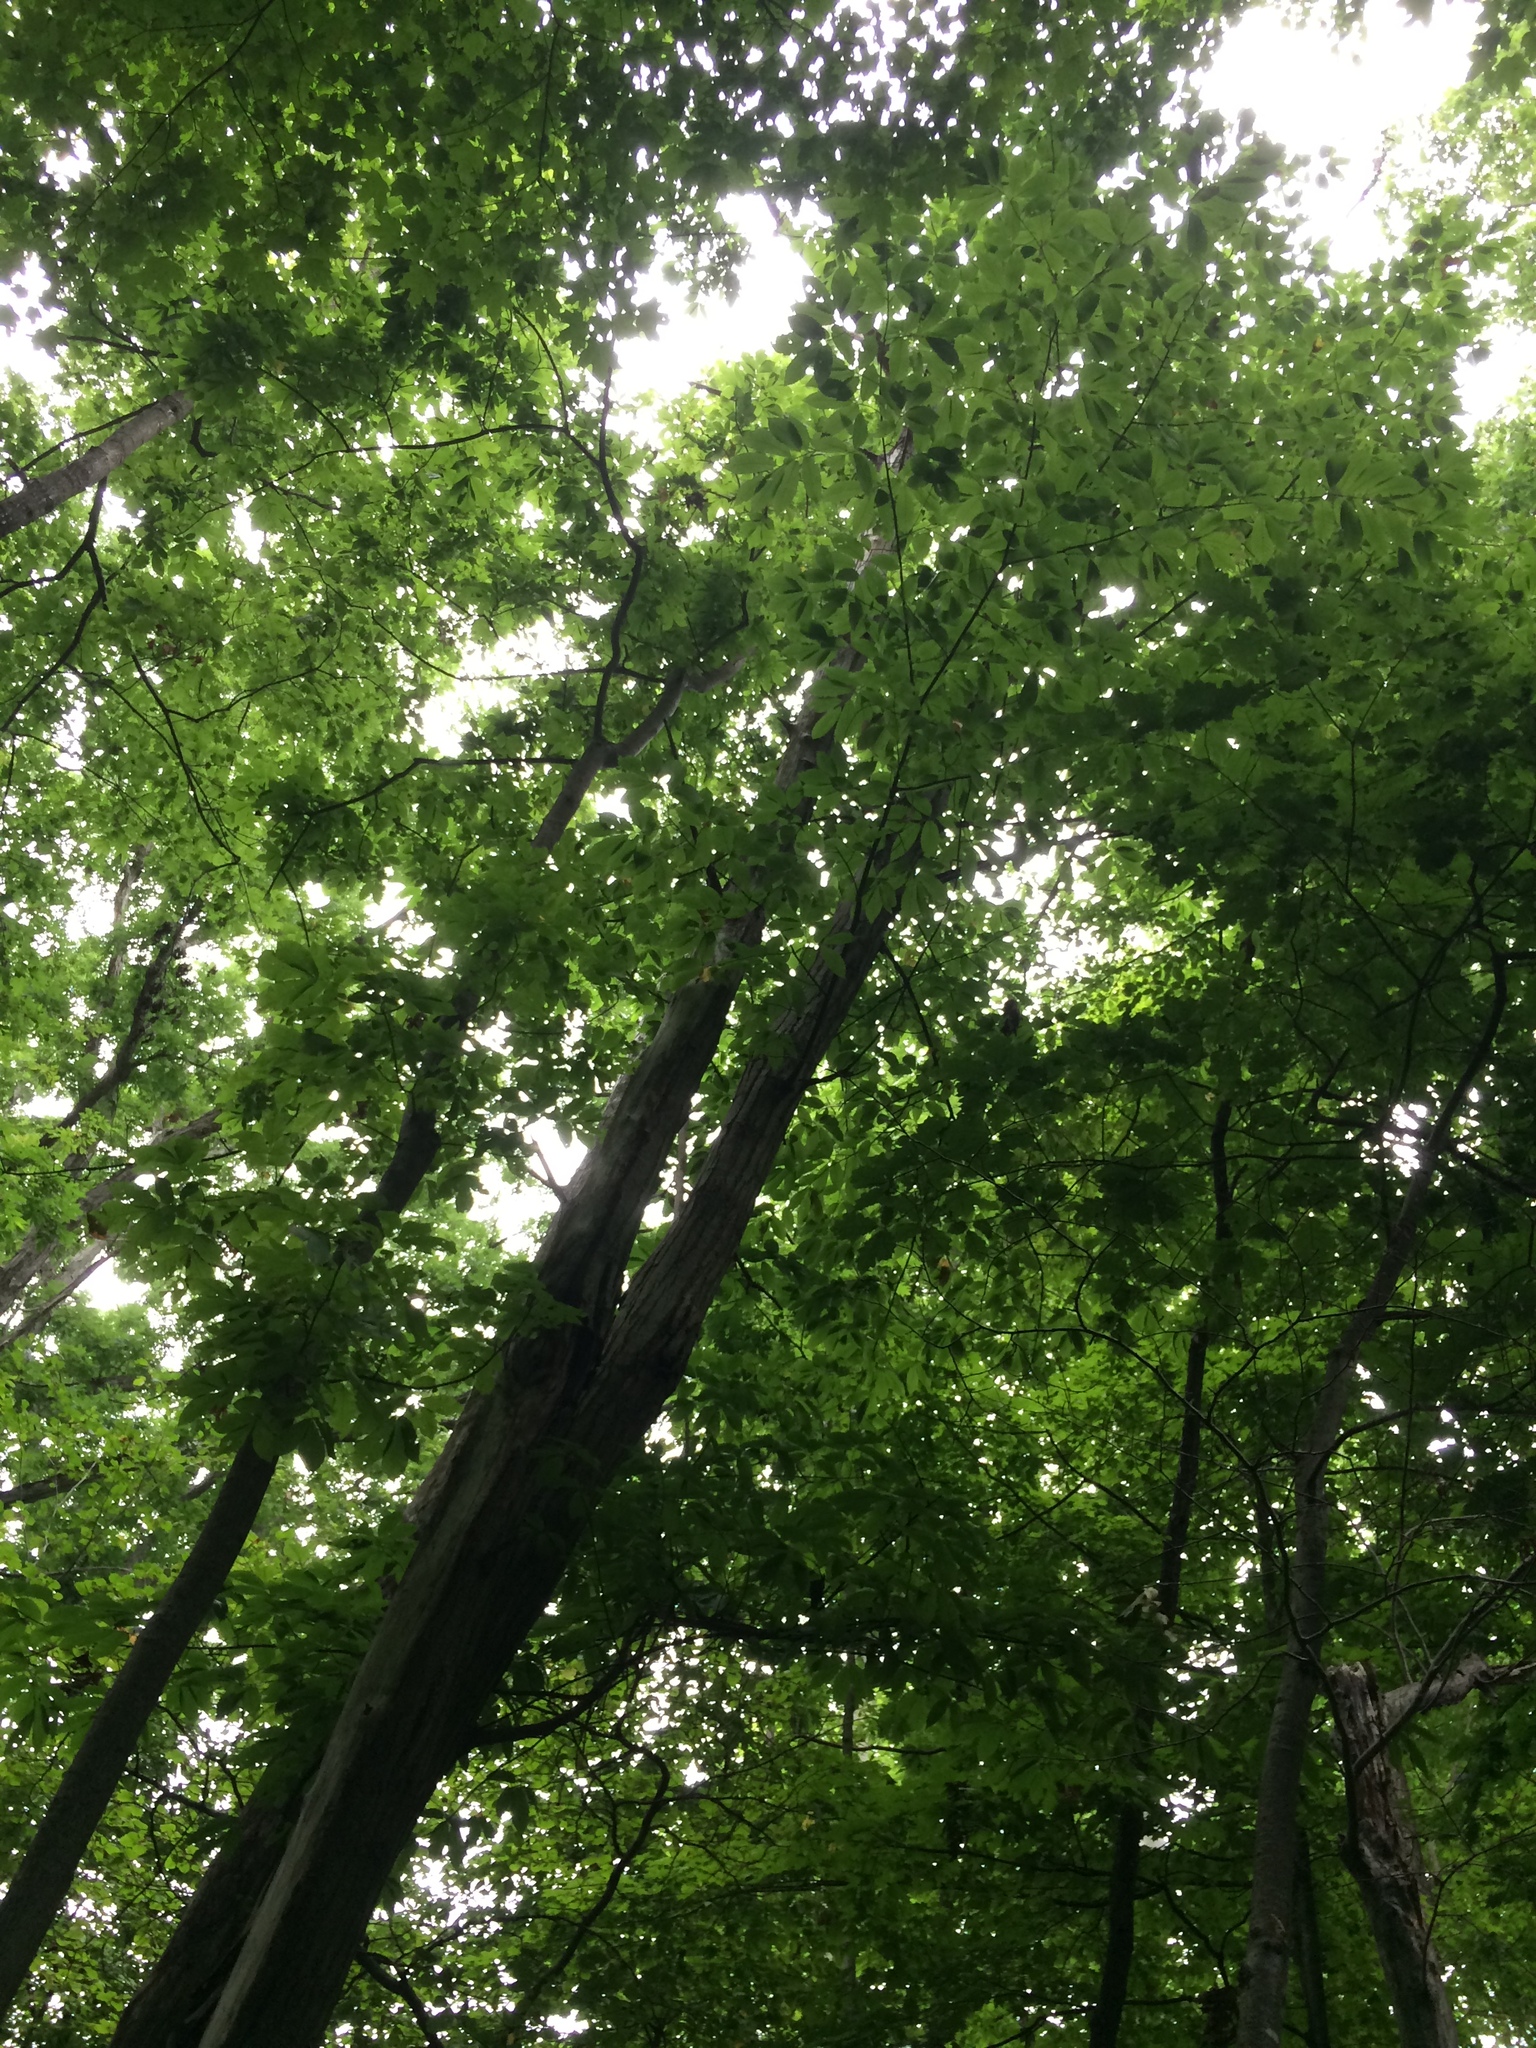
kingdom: Plantae
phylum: Tracheophyta
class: Magnoliopsida
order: Fagales
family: Fagaceae
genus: Castanea
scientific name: Castanea dentata
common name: American chestnut
